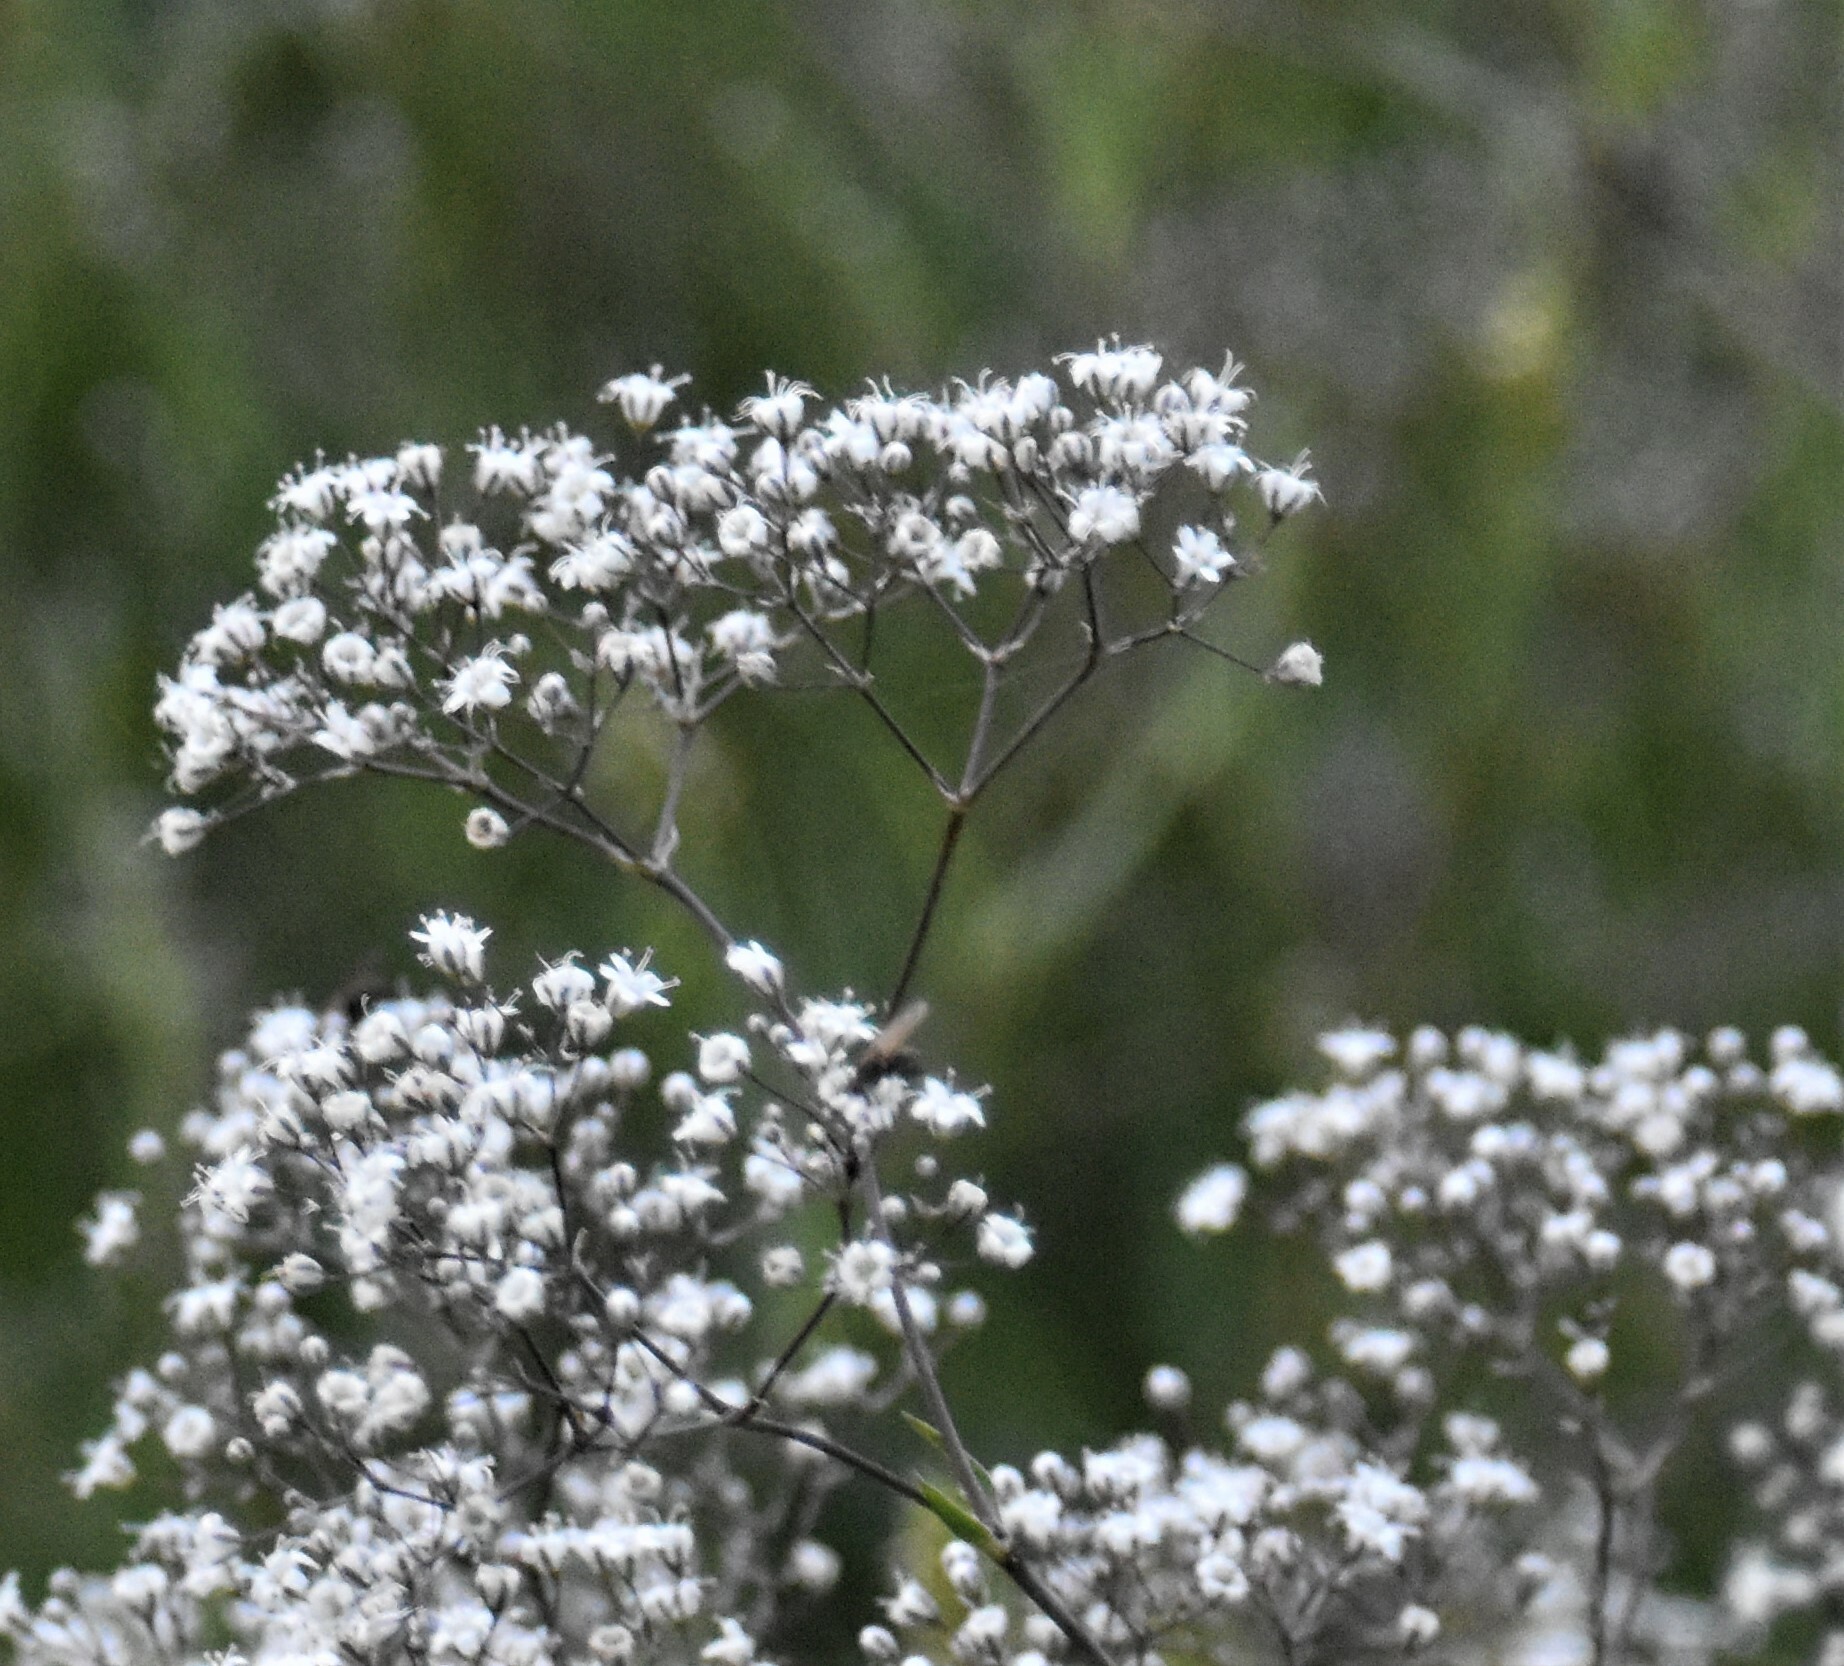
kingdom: Plantae
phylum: Tracheophyta
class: Magnoliopsida
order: Caryophyllales
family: Caryophyllaceae
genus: Gypsophila
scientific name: Gypsophila paniculata
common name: Baby's-breath
